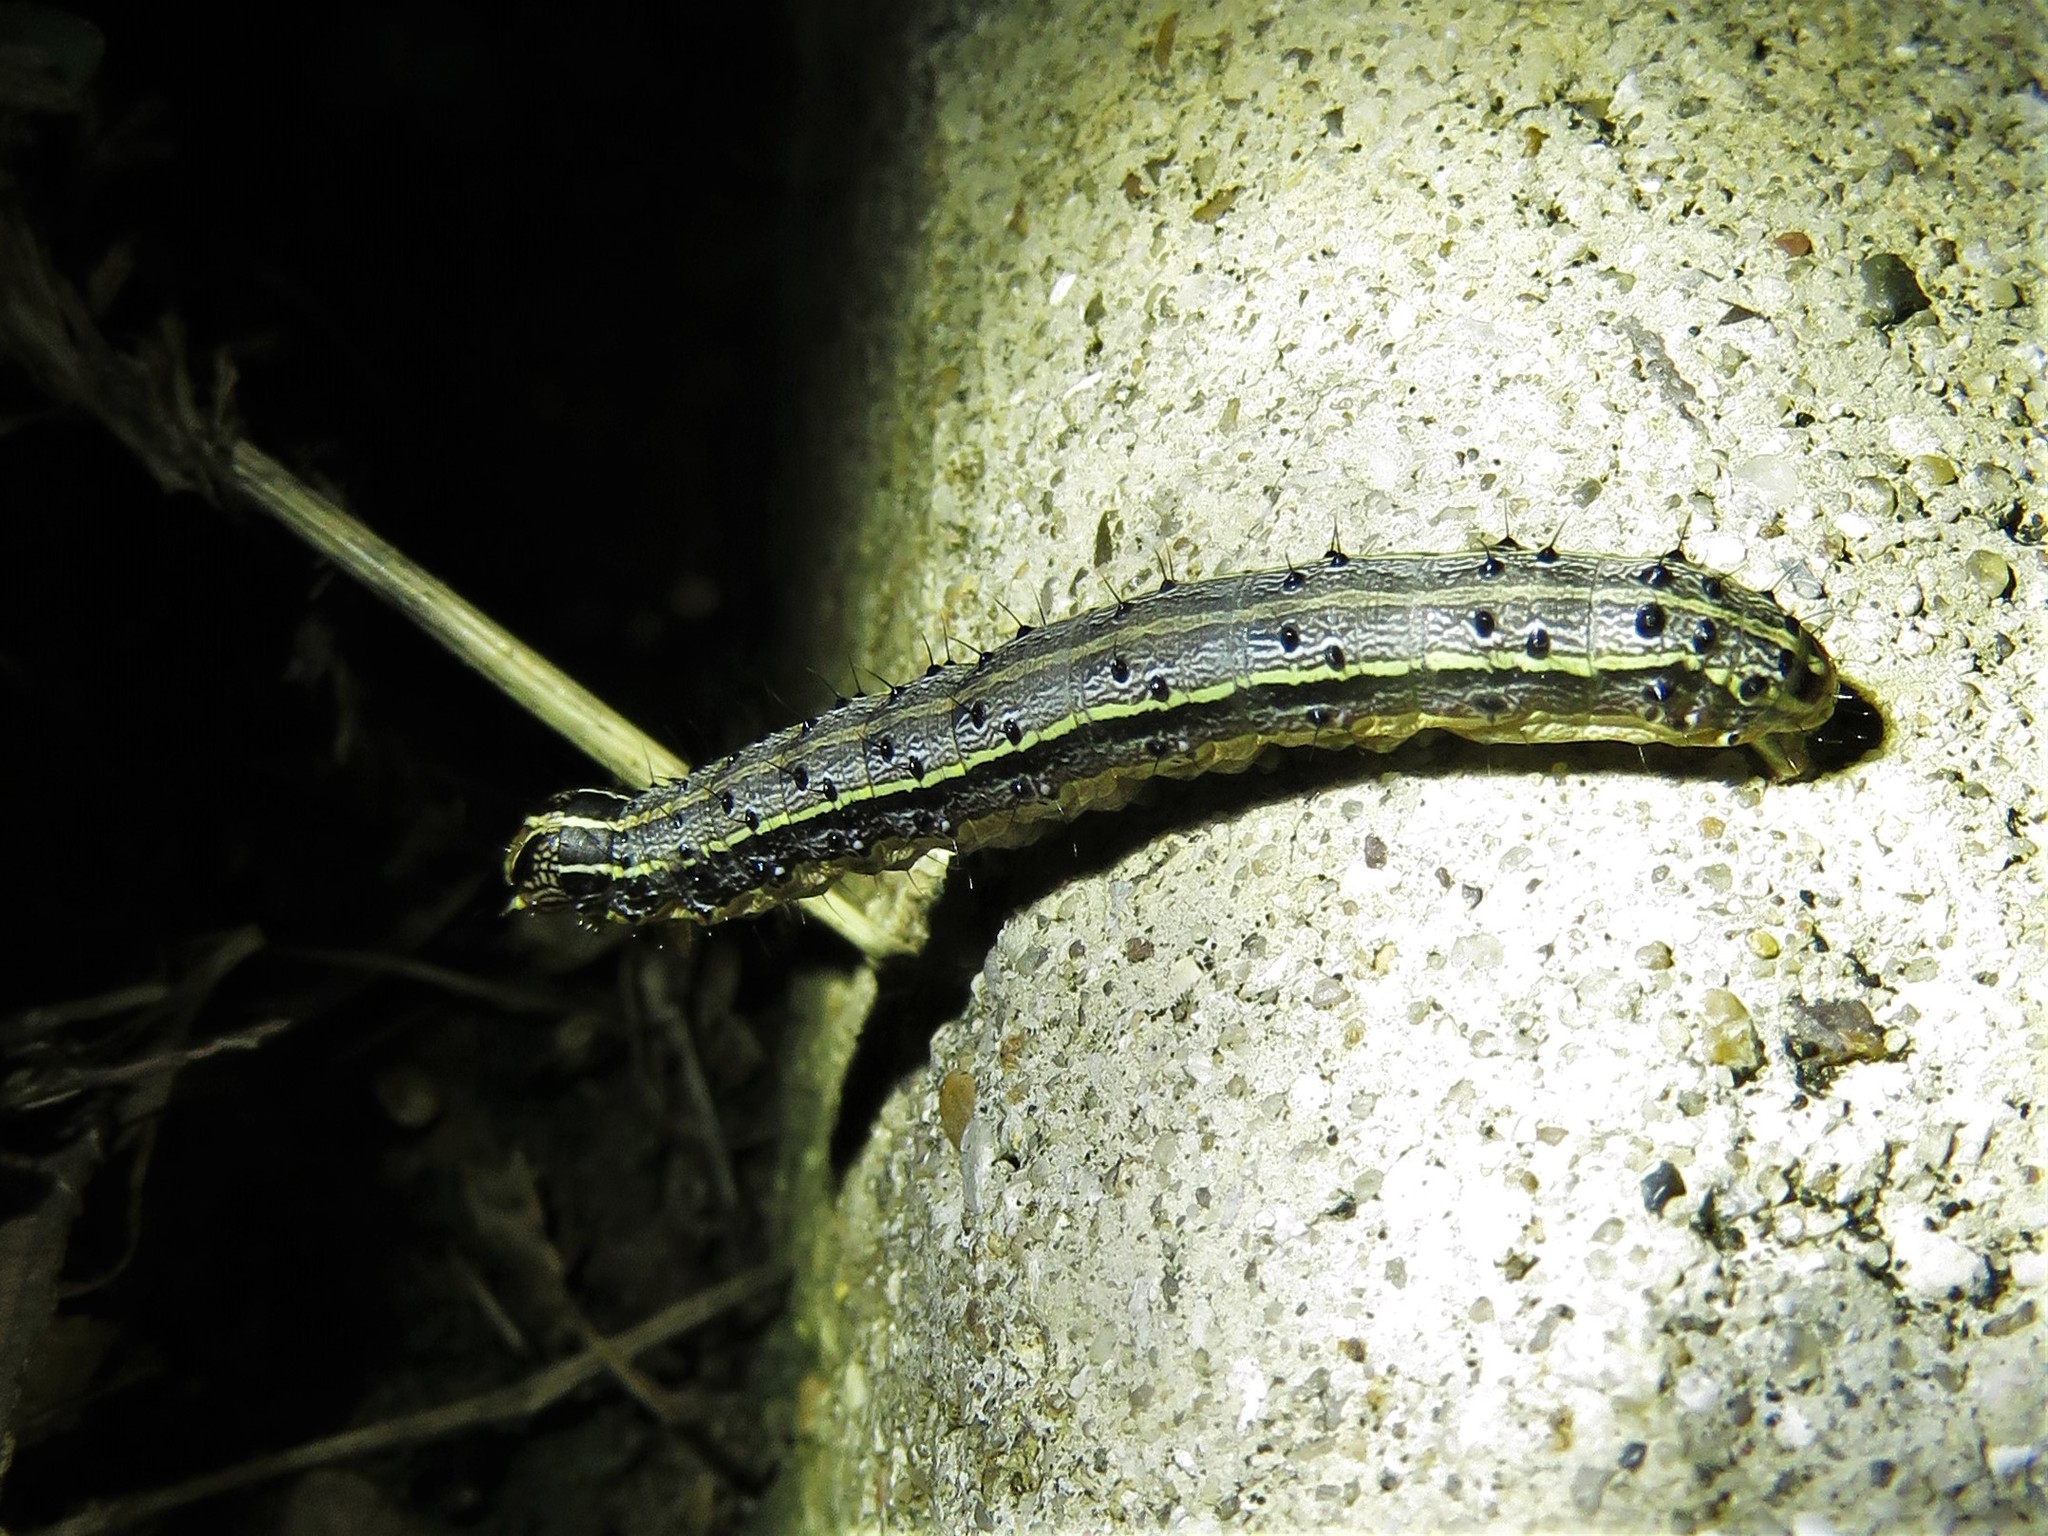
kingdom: Animalia
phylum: Arthropoda
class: Insecta
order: Lepidoptera
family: Noctuidae
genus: Spodoptera
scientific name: Spodoptera frugiperda
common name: Fall armyworm
